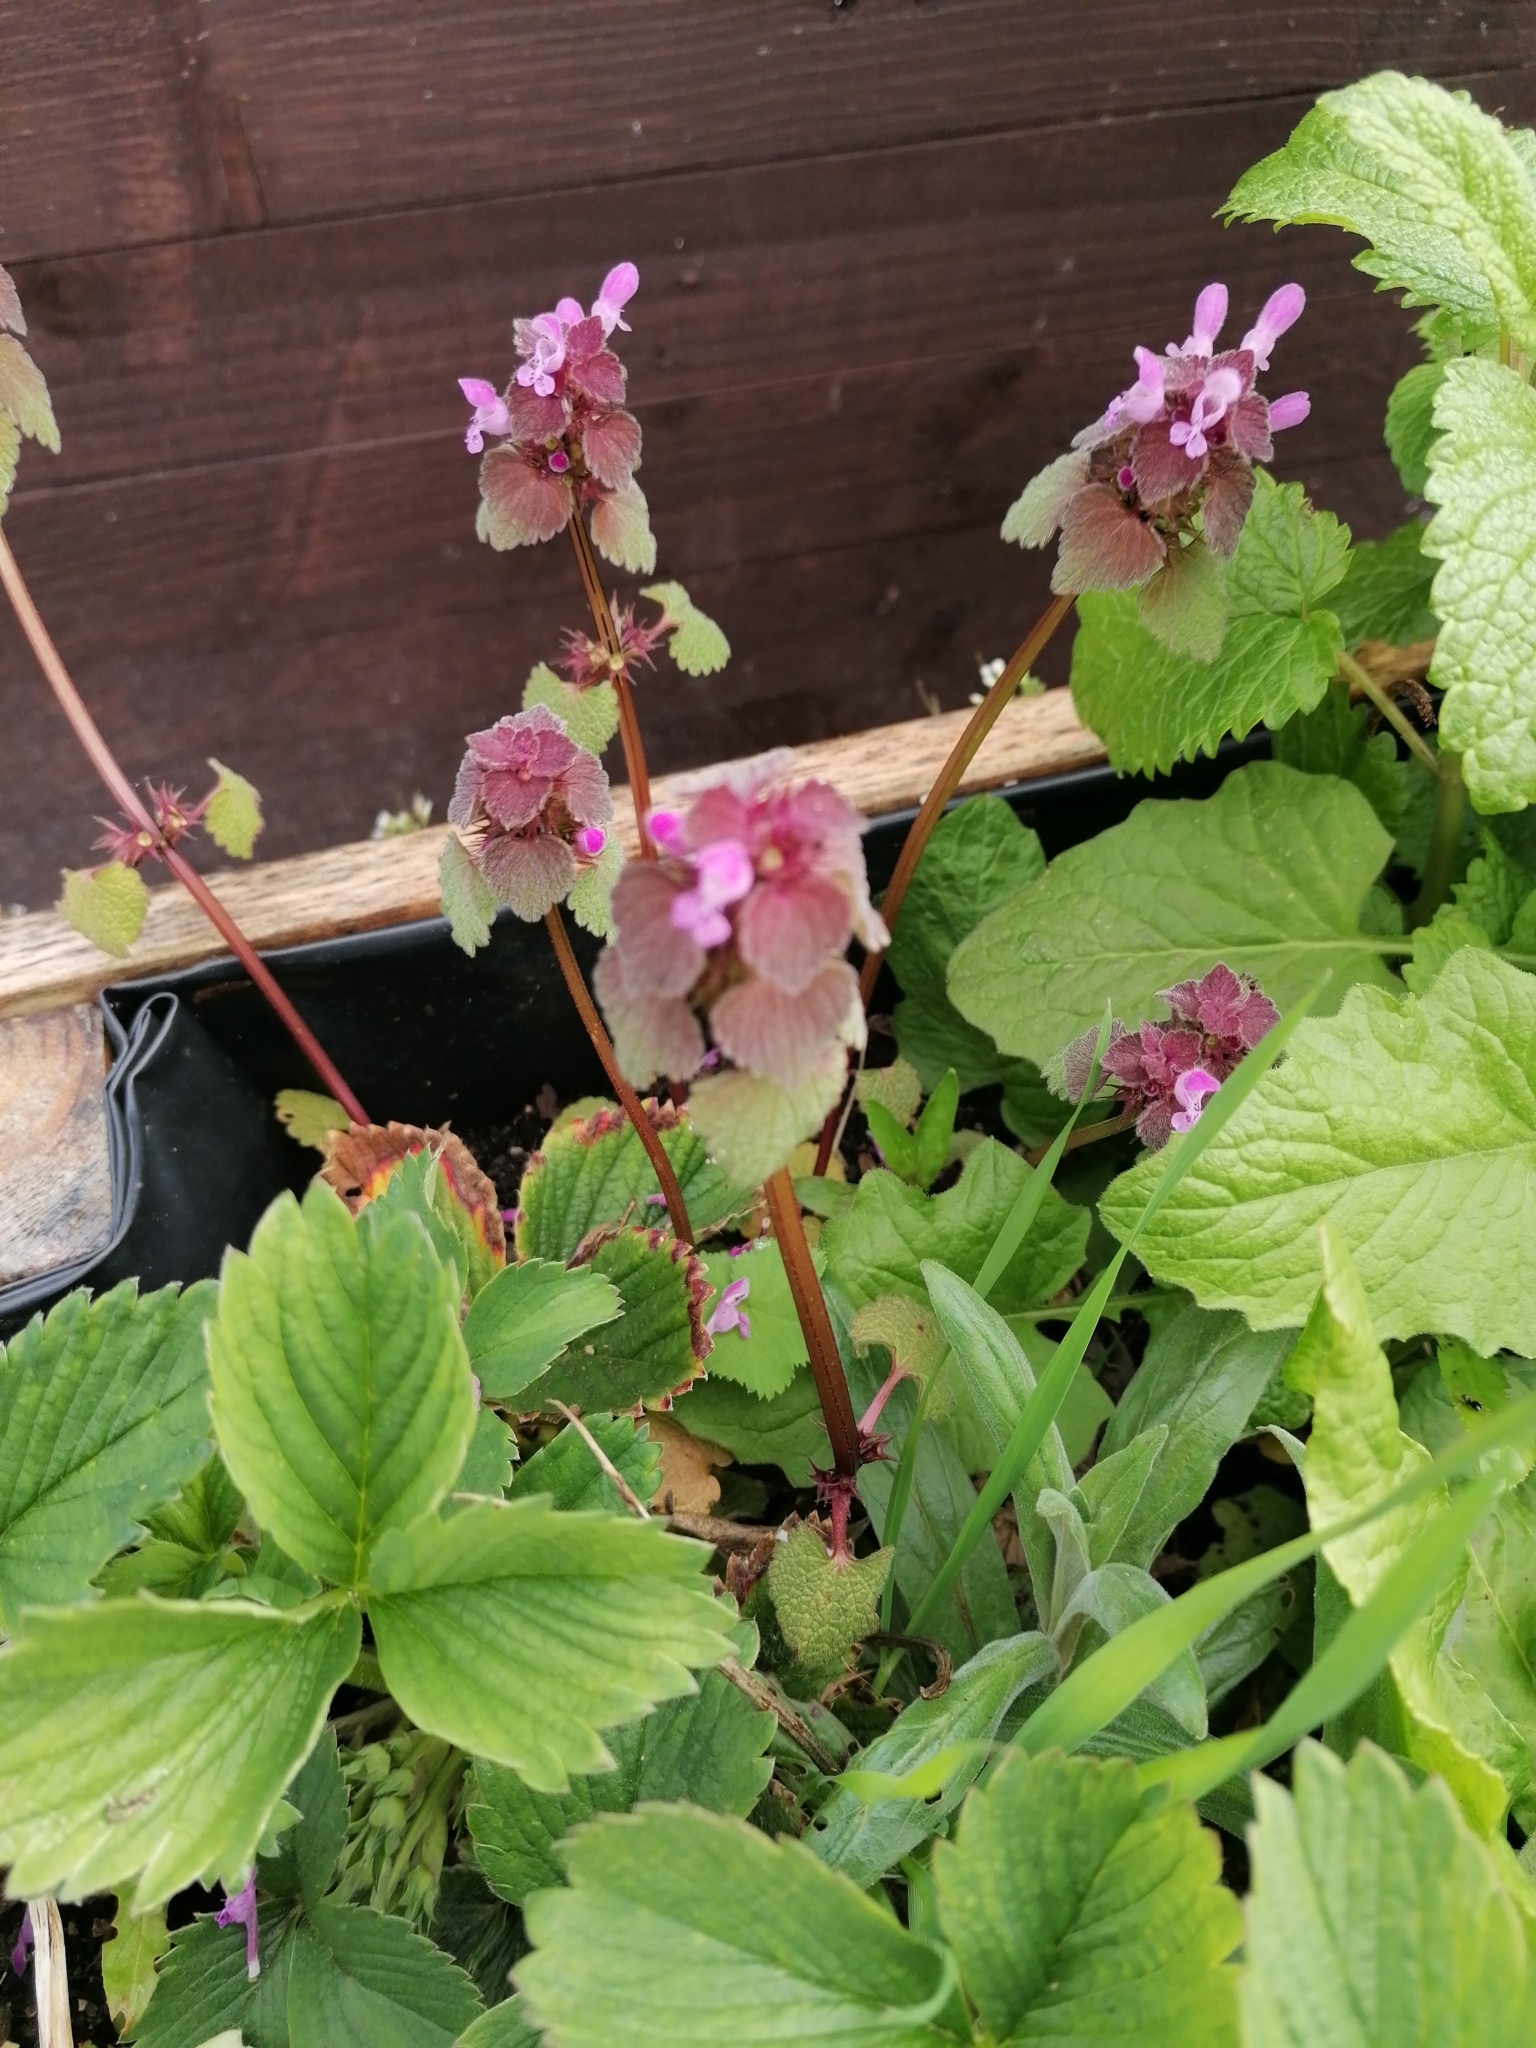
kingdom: Plantae
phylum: Tracheophyta
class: Magnoliopsida
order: Lamiales
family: Lamiaceae
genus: Lamium
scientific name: Lamium purpureum
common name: Red dead-nettle
